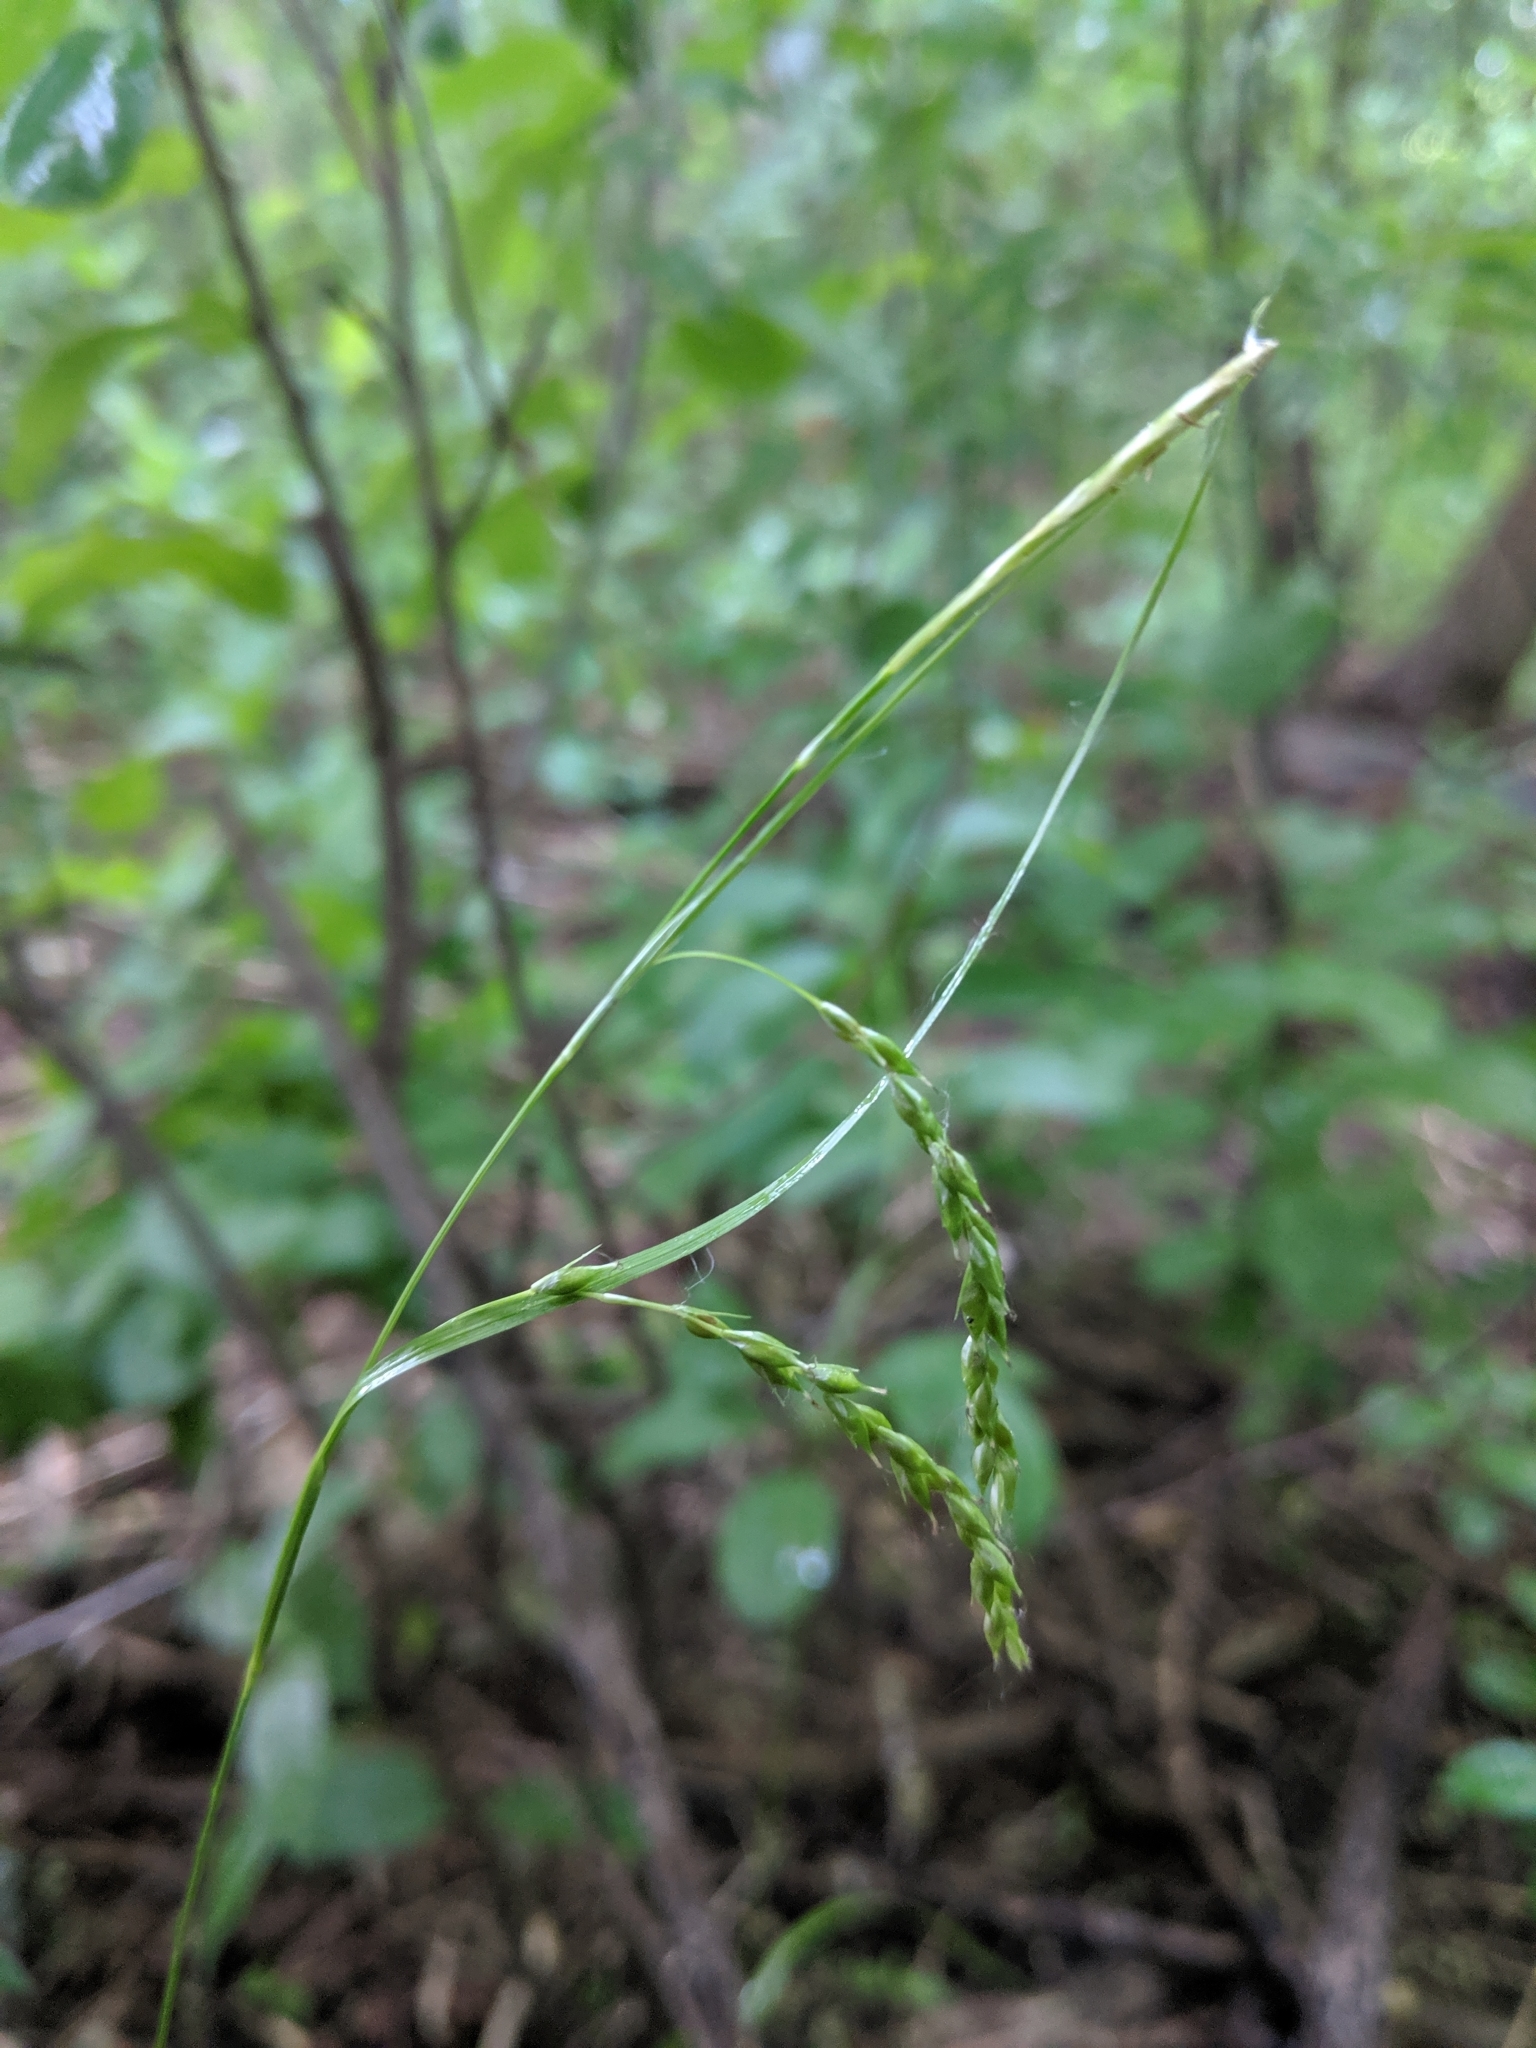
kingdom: Plantae
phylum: Tracheophyta
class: Liliopsida
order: Poales
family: Cyperaceae
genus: Carex
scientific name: Carex arctata
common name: Black sedge
